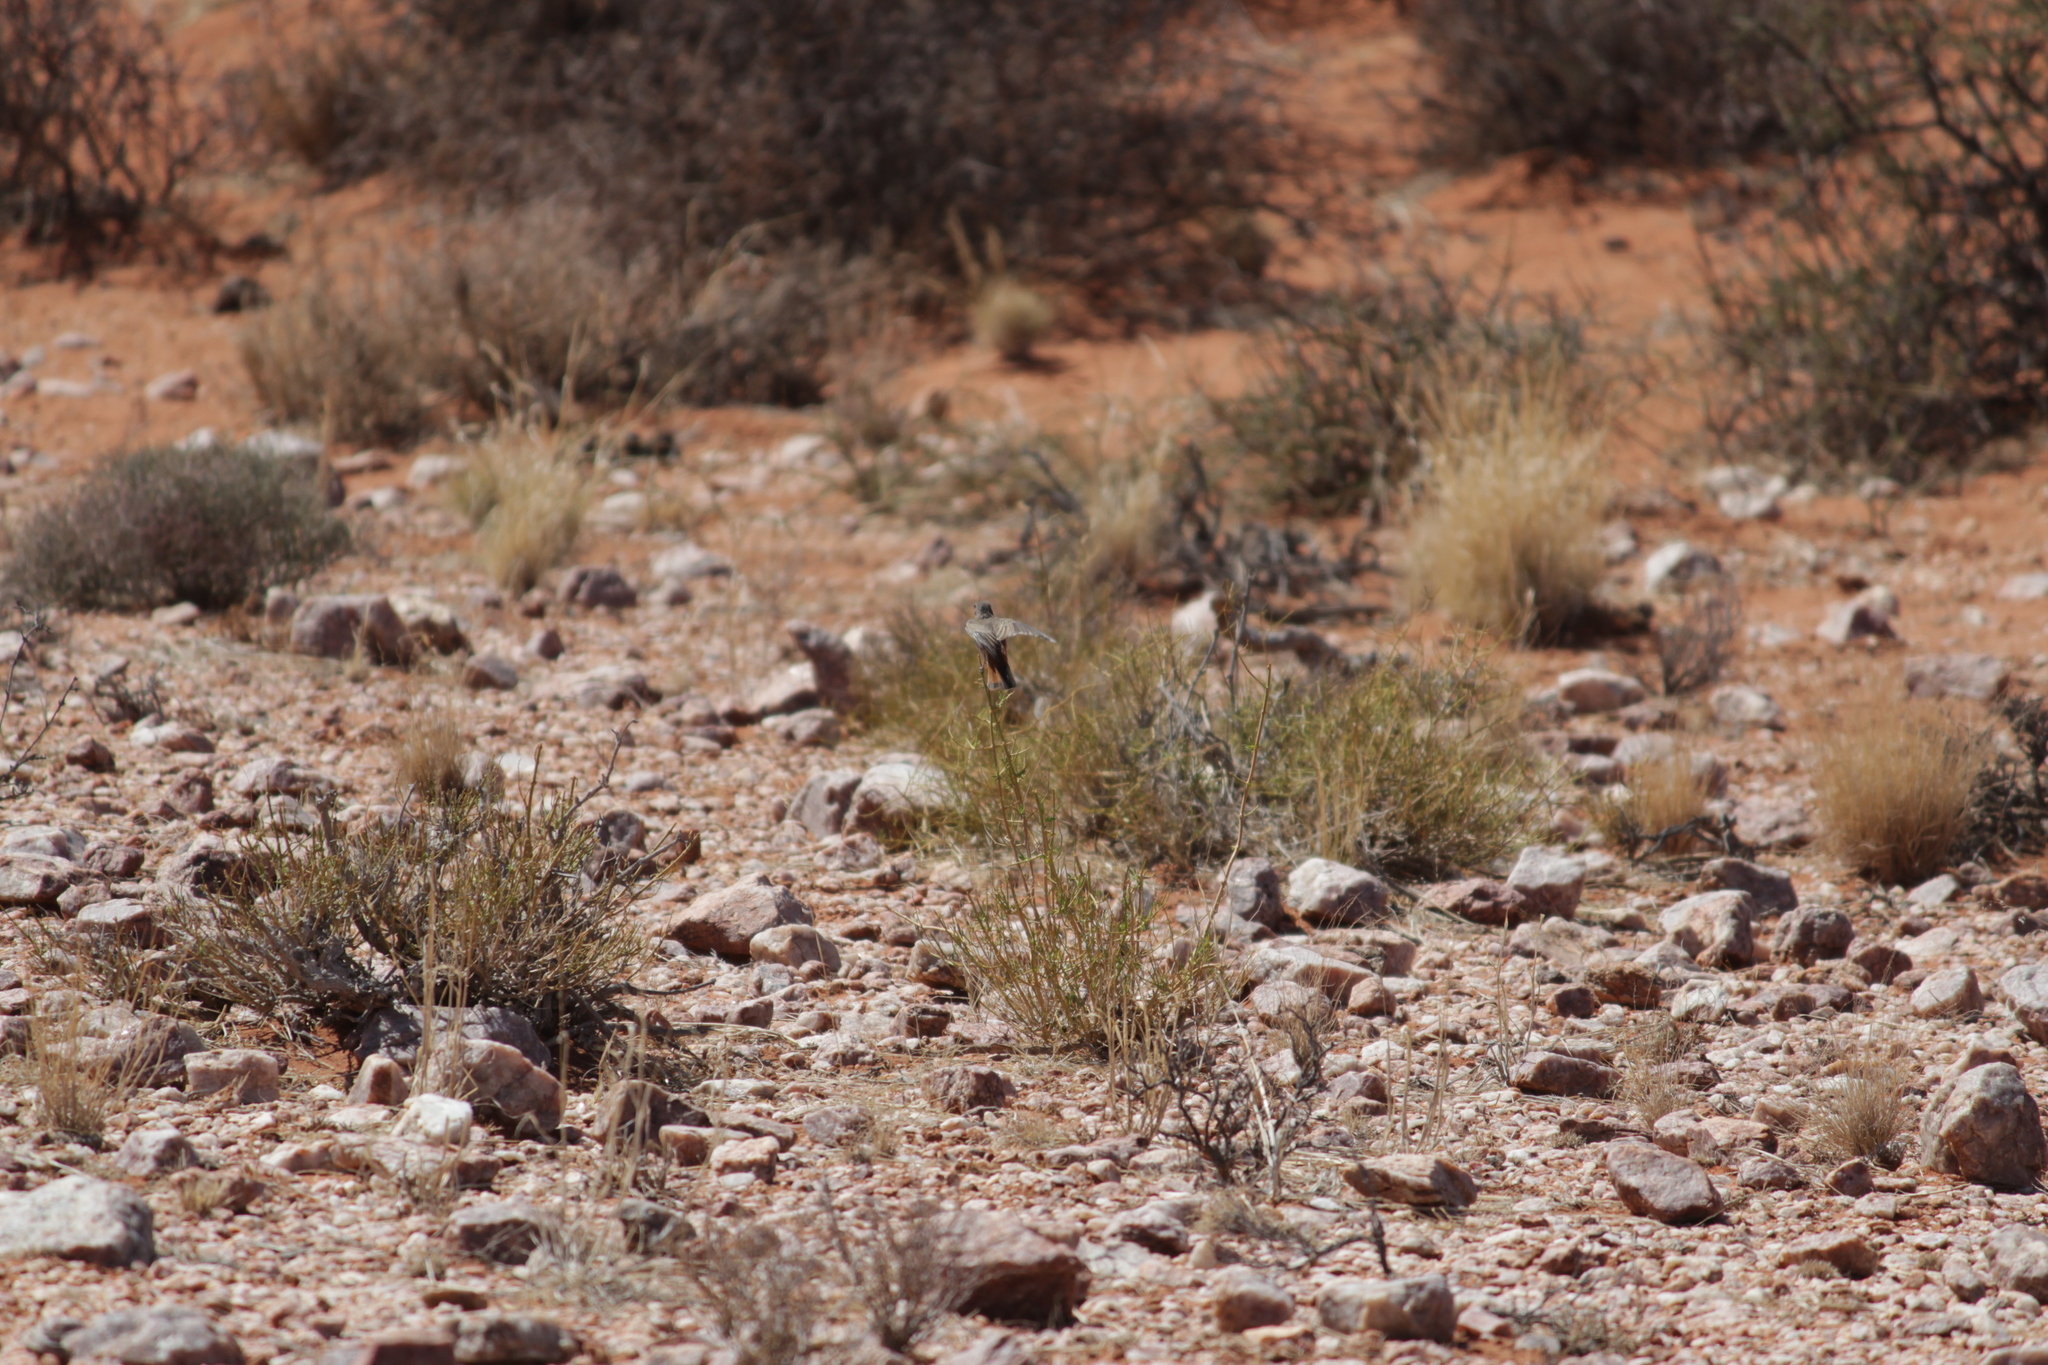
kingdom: Animalia
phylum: Chordata
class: Aves
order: Passeriformes
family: Muscicapidae
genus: Oenanthe
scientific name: Oenanthe familiaris
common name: Familiar chat
